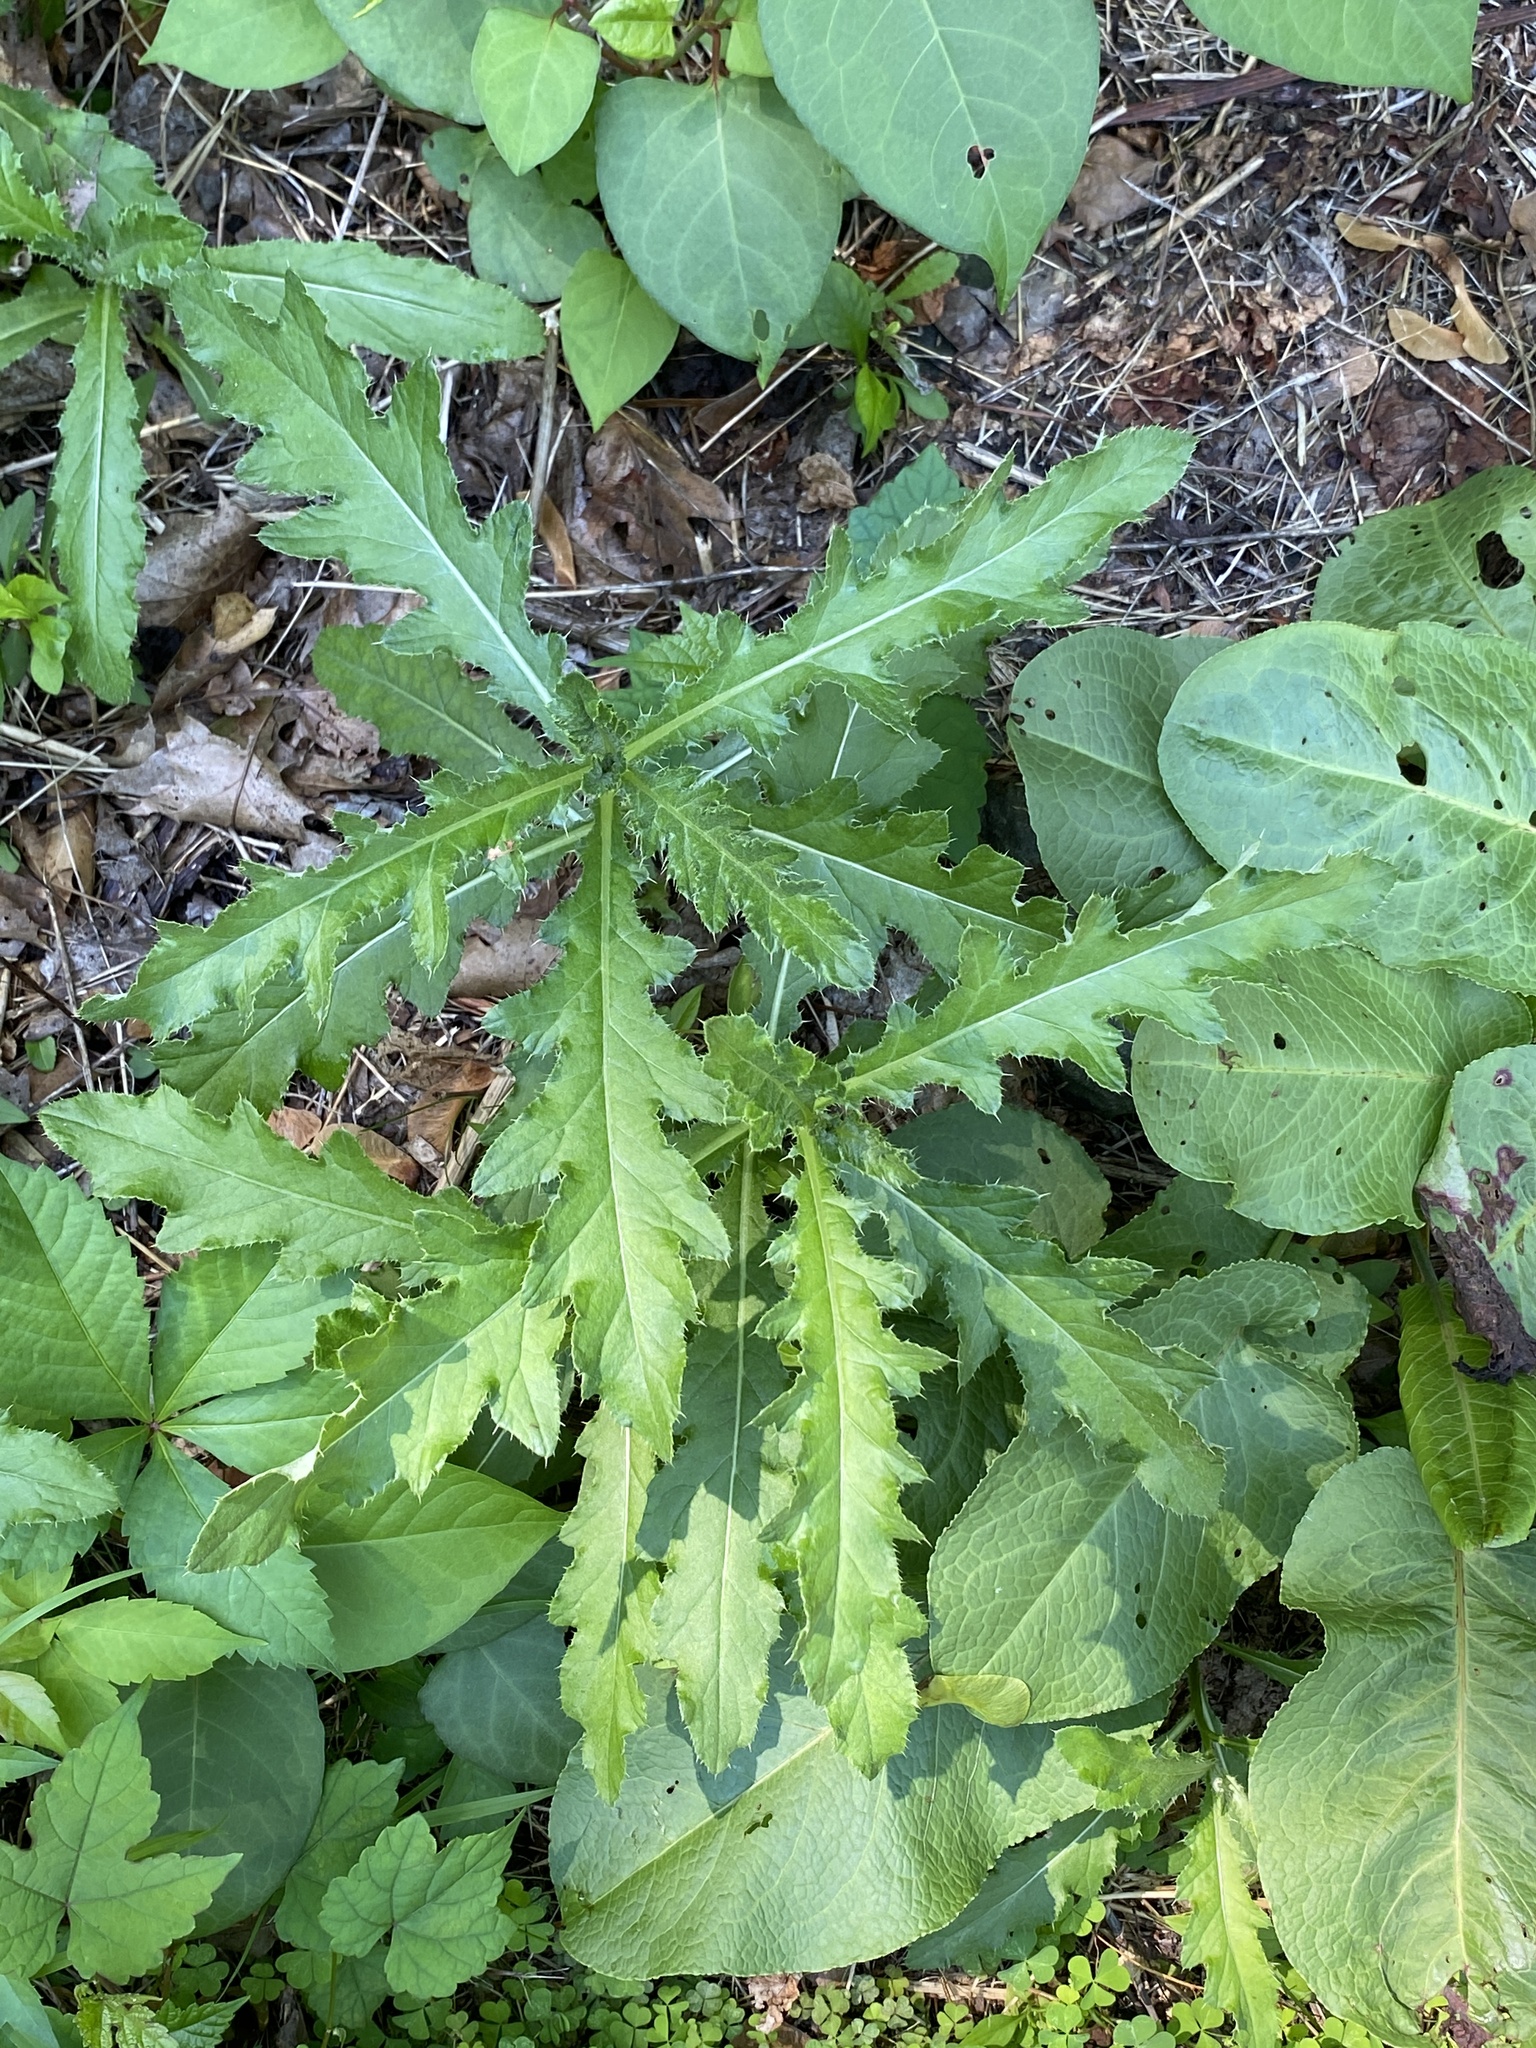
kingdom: Plantae
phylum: Tracheophyta
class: Magnoliopsida
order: Asterales
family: Asteraceae
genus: Cirsium
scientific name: Cirsium arvense
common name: Creeping thistle
